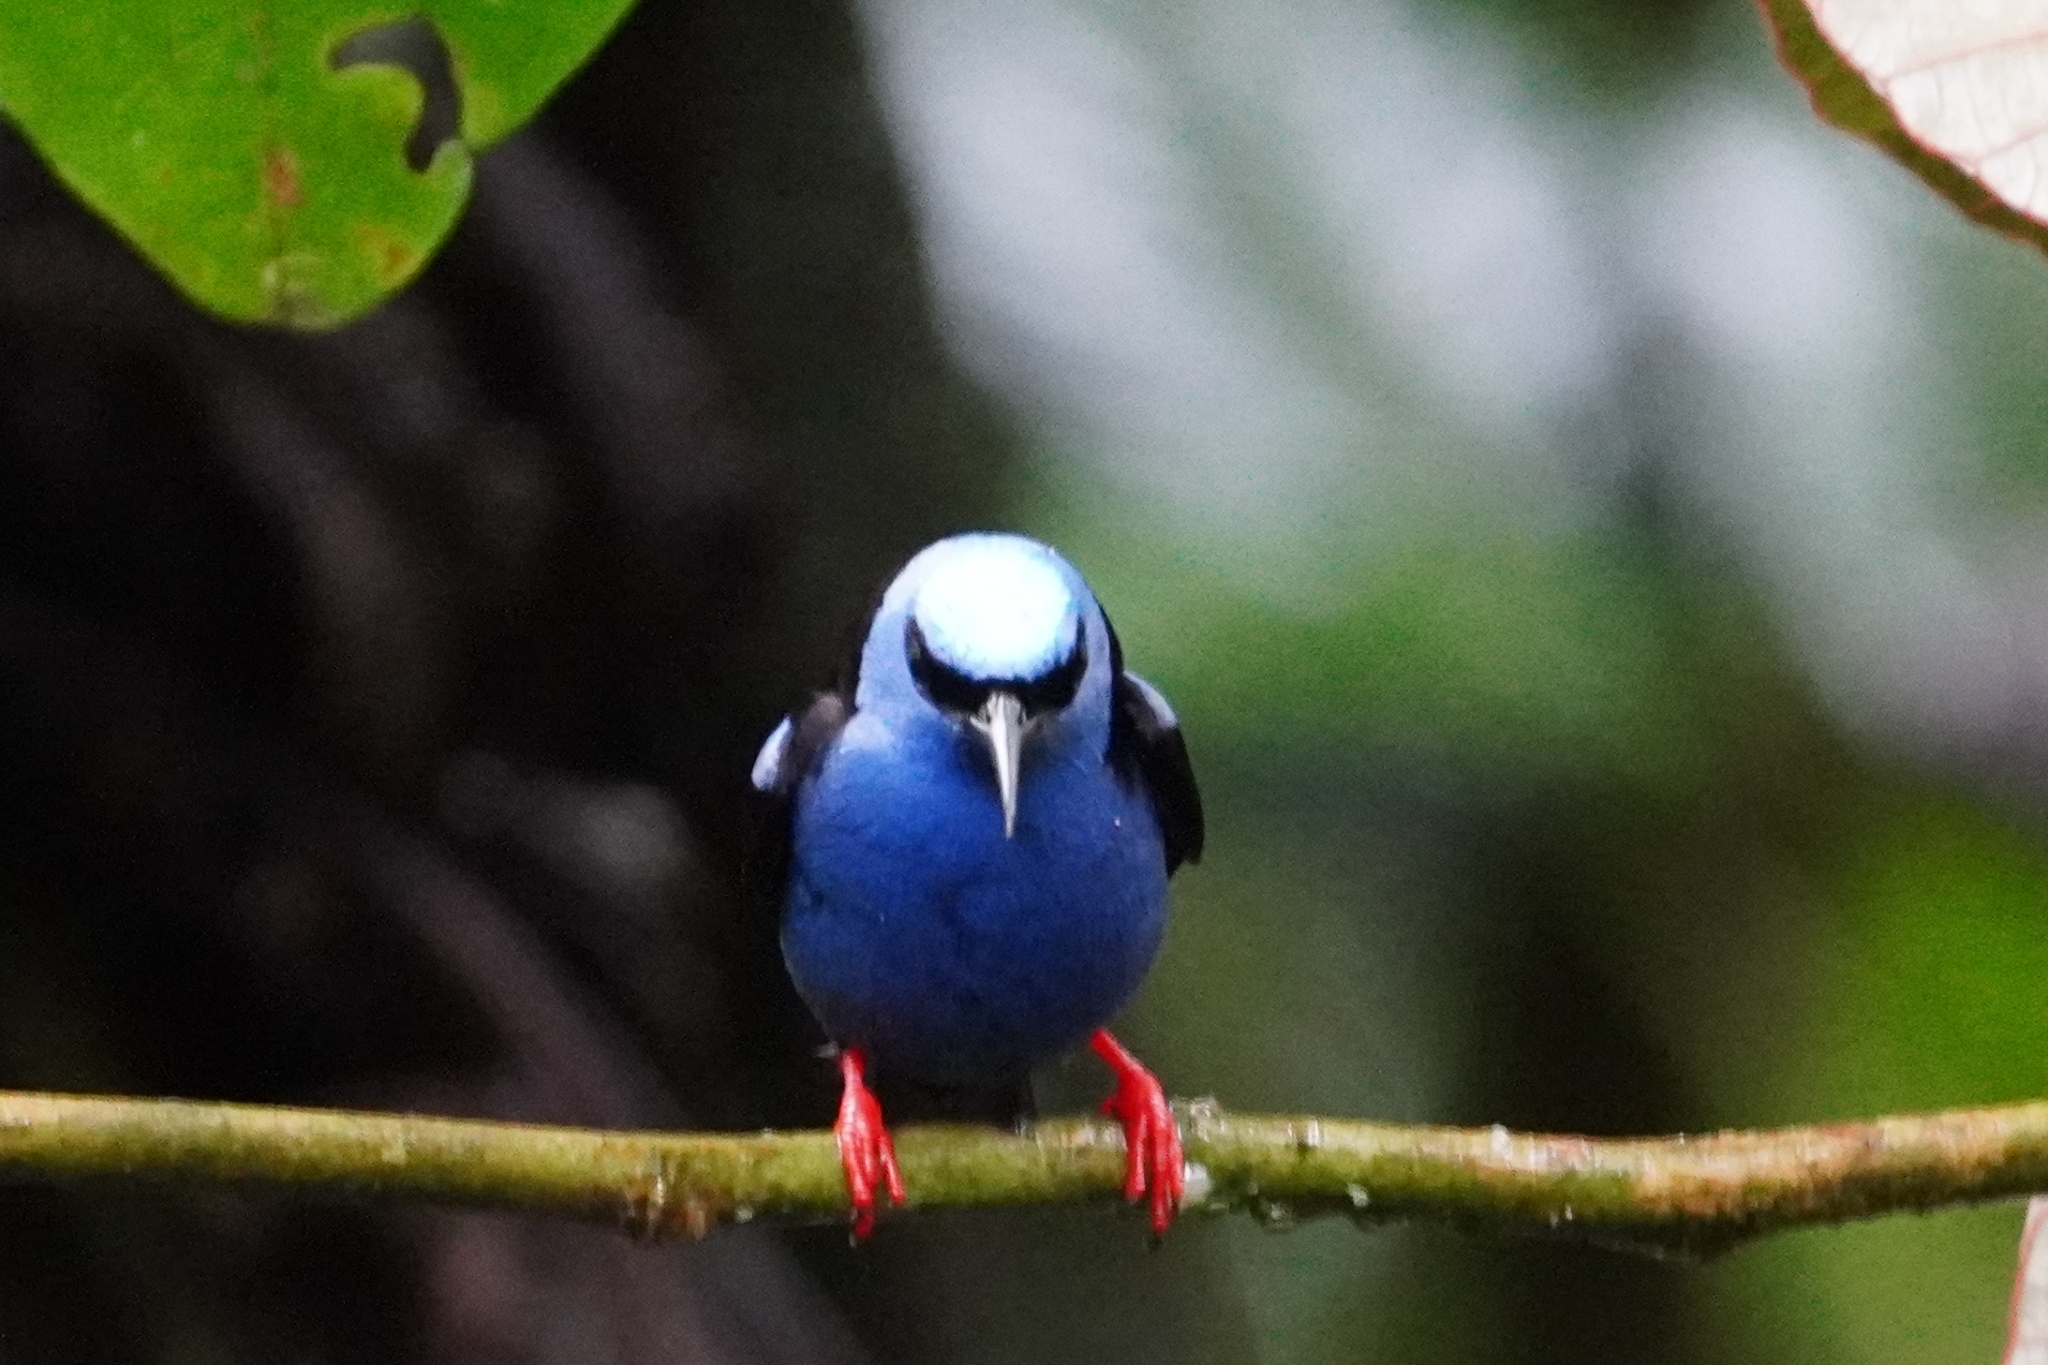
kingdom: Animalia
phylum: Chordata
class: Aves
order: Passeriformes
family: Thraupidae
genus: Cyanerpes
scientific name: Cyanerpes cyaneus
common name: Red-legged honeycreeper
